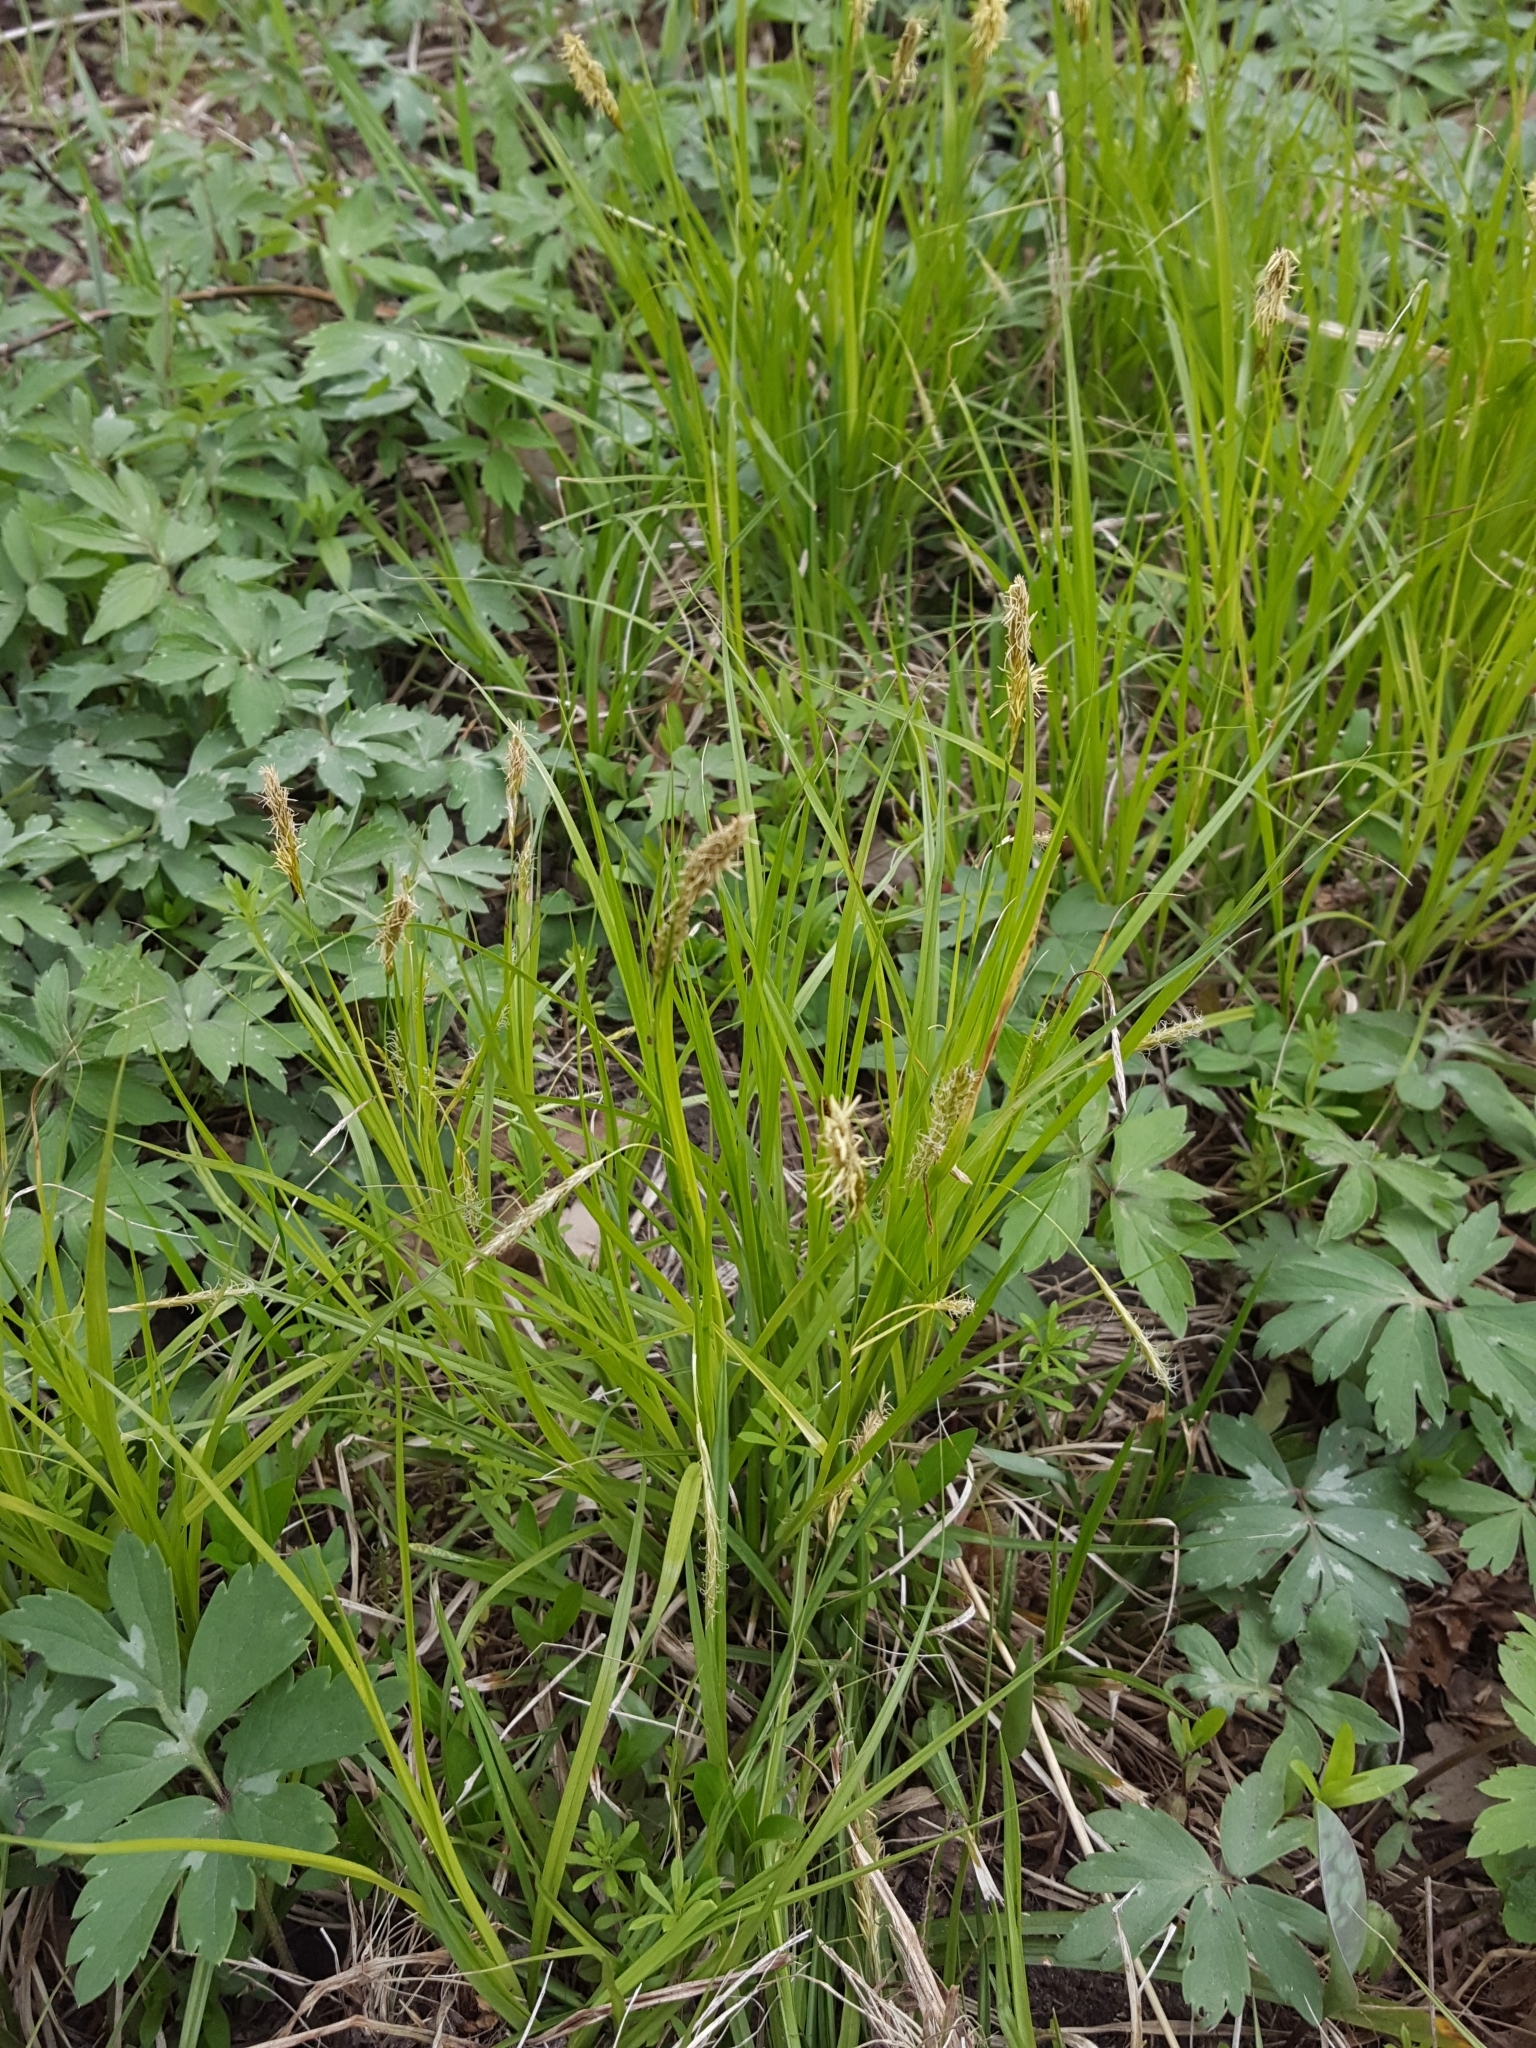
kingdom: Plantae
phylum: Tracheophyta
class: Liliopsida
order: Poales
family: Cyperaceae
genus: Carex
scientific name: Carex sprengelii
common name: Long-beaked sedge
